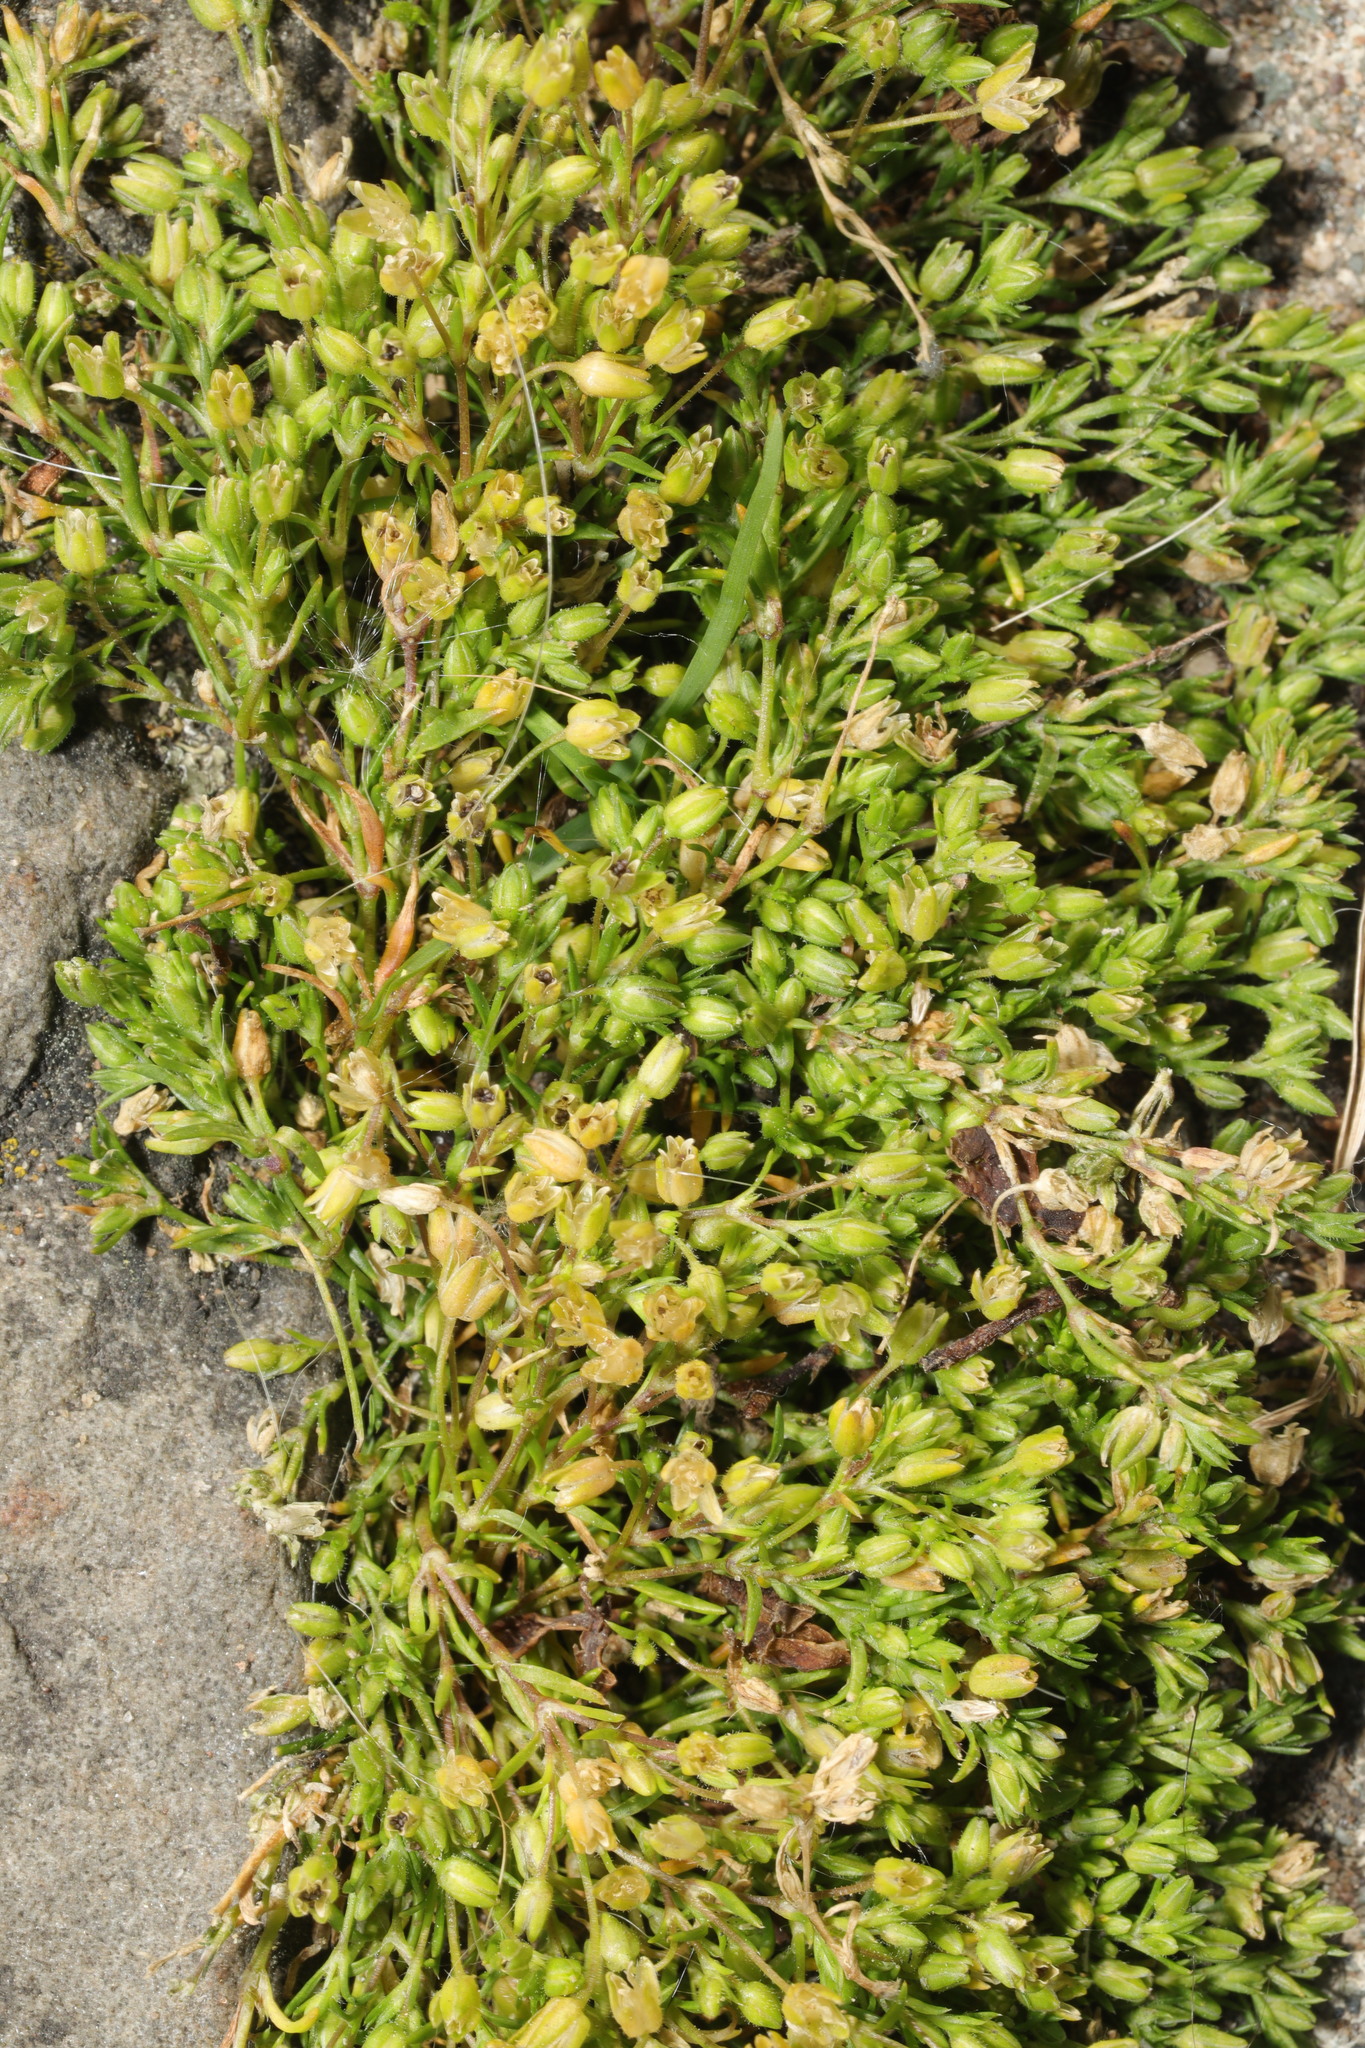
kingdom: Plantae
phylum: Tracheophyta
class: Magnoliopsida
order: Caryophyllales
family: Caryophyllaceae
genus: Sagina
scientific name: Sagina procumbens
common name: Procumbent pearlwort
